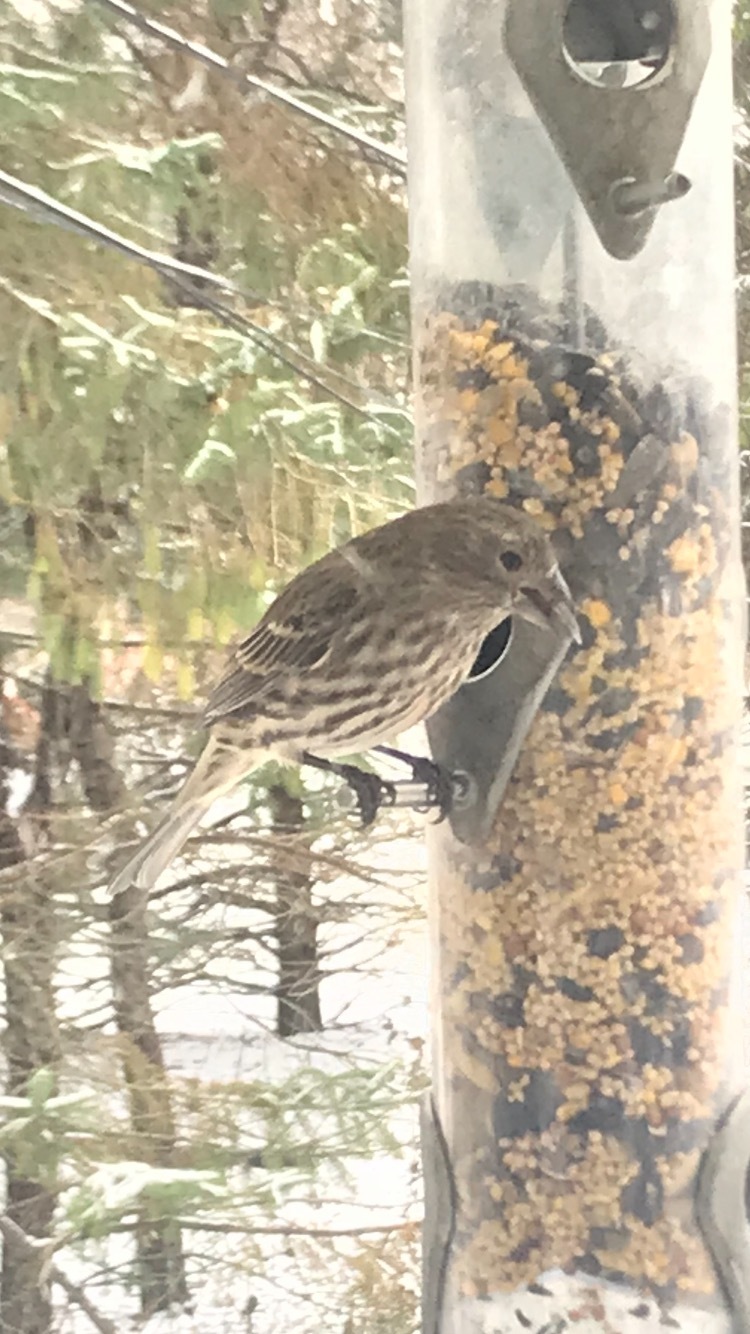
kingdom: Animalia
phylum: Chordata
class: Aves
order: Passeriformes
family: Fringillidae
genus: Haemorhous
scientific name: Haemorhous mexicanus
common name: House finch
